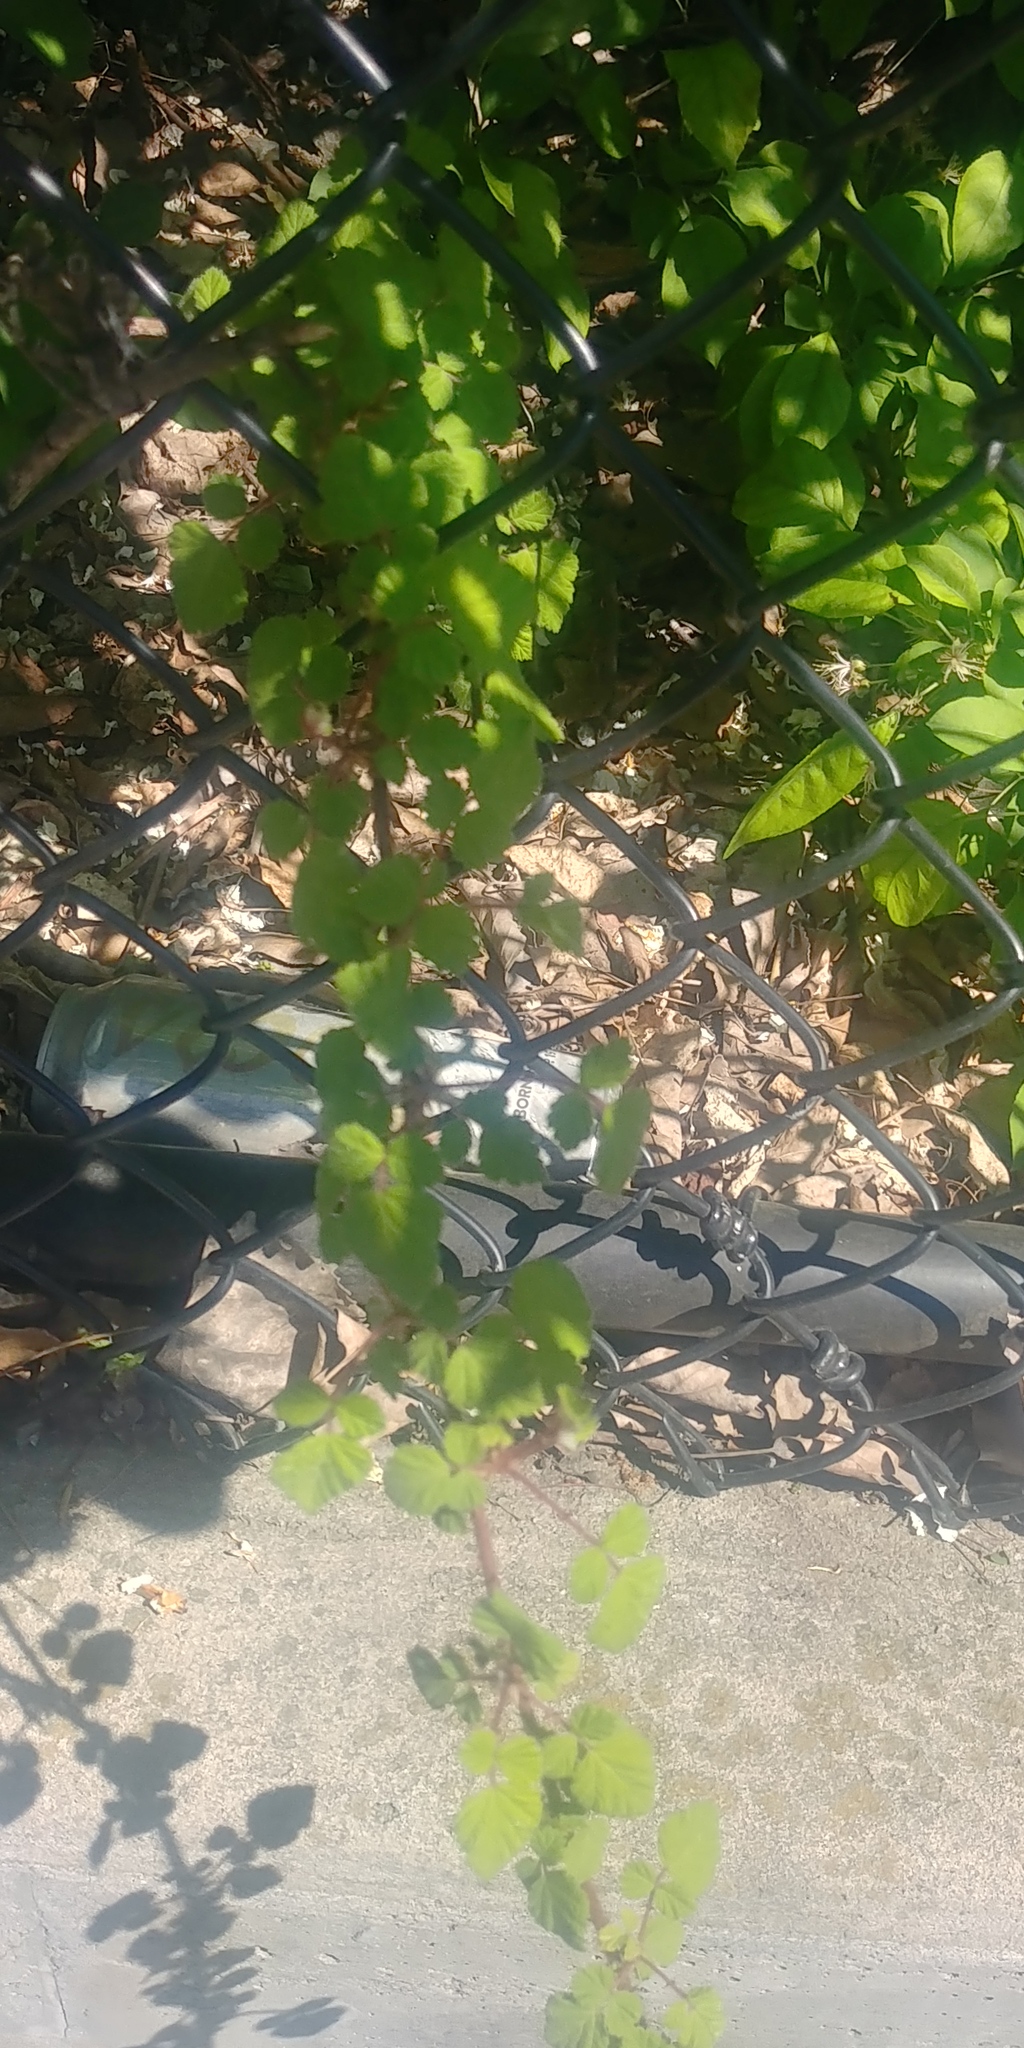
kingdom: Plantae
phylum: Tracheophyta
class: Magnoliopsida
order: Rosales
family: Rosaceae
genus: Rubus
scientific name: Rubus phoenicolasius
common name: Japanese wineberry
